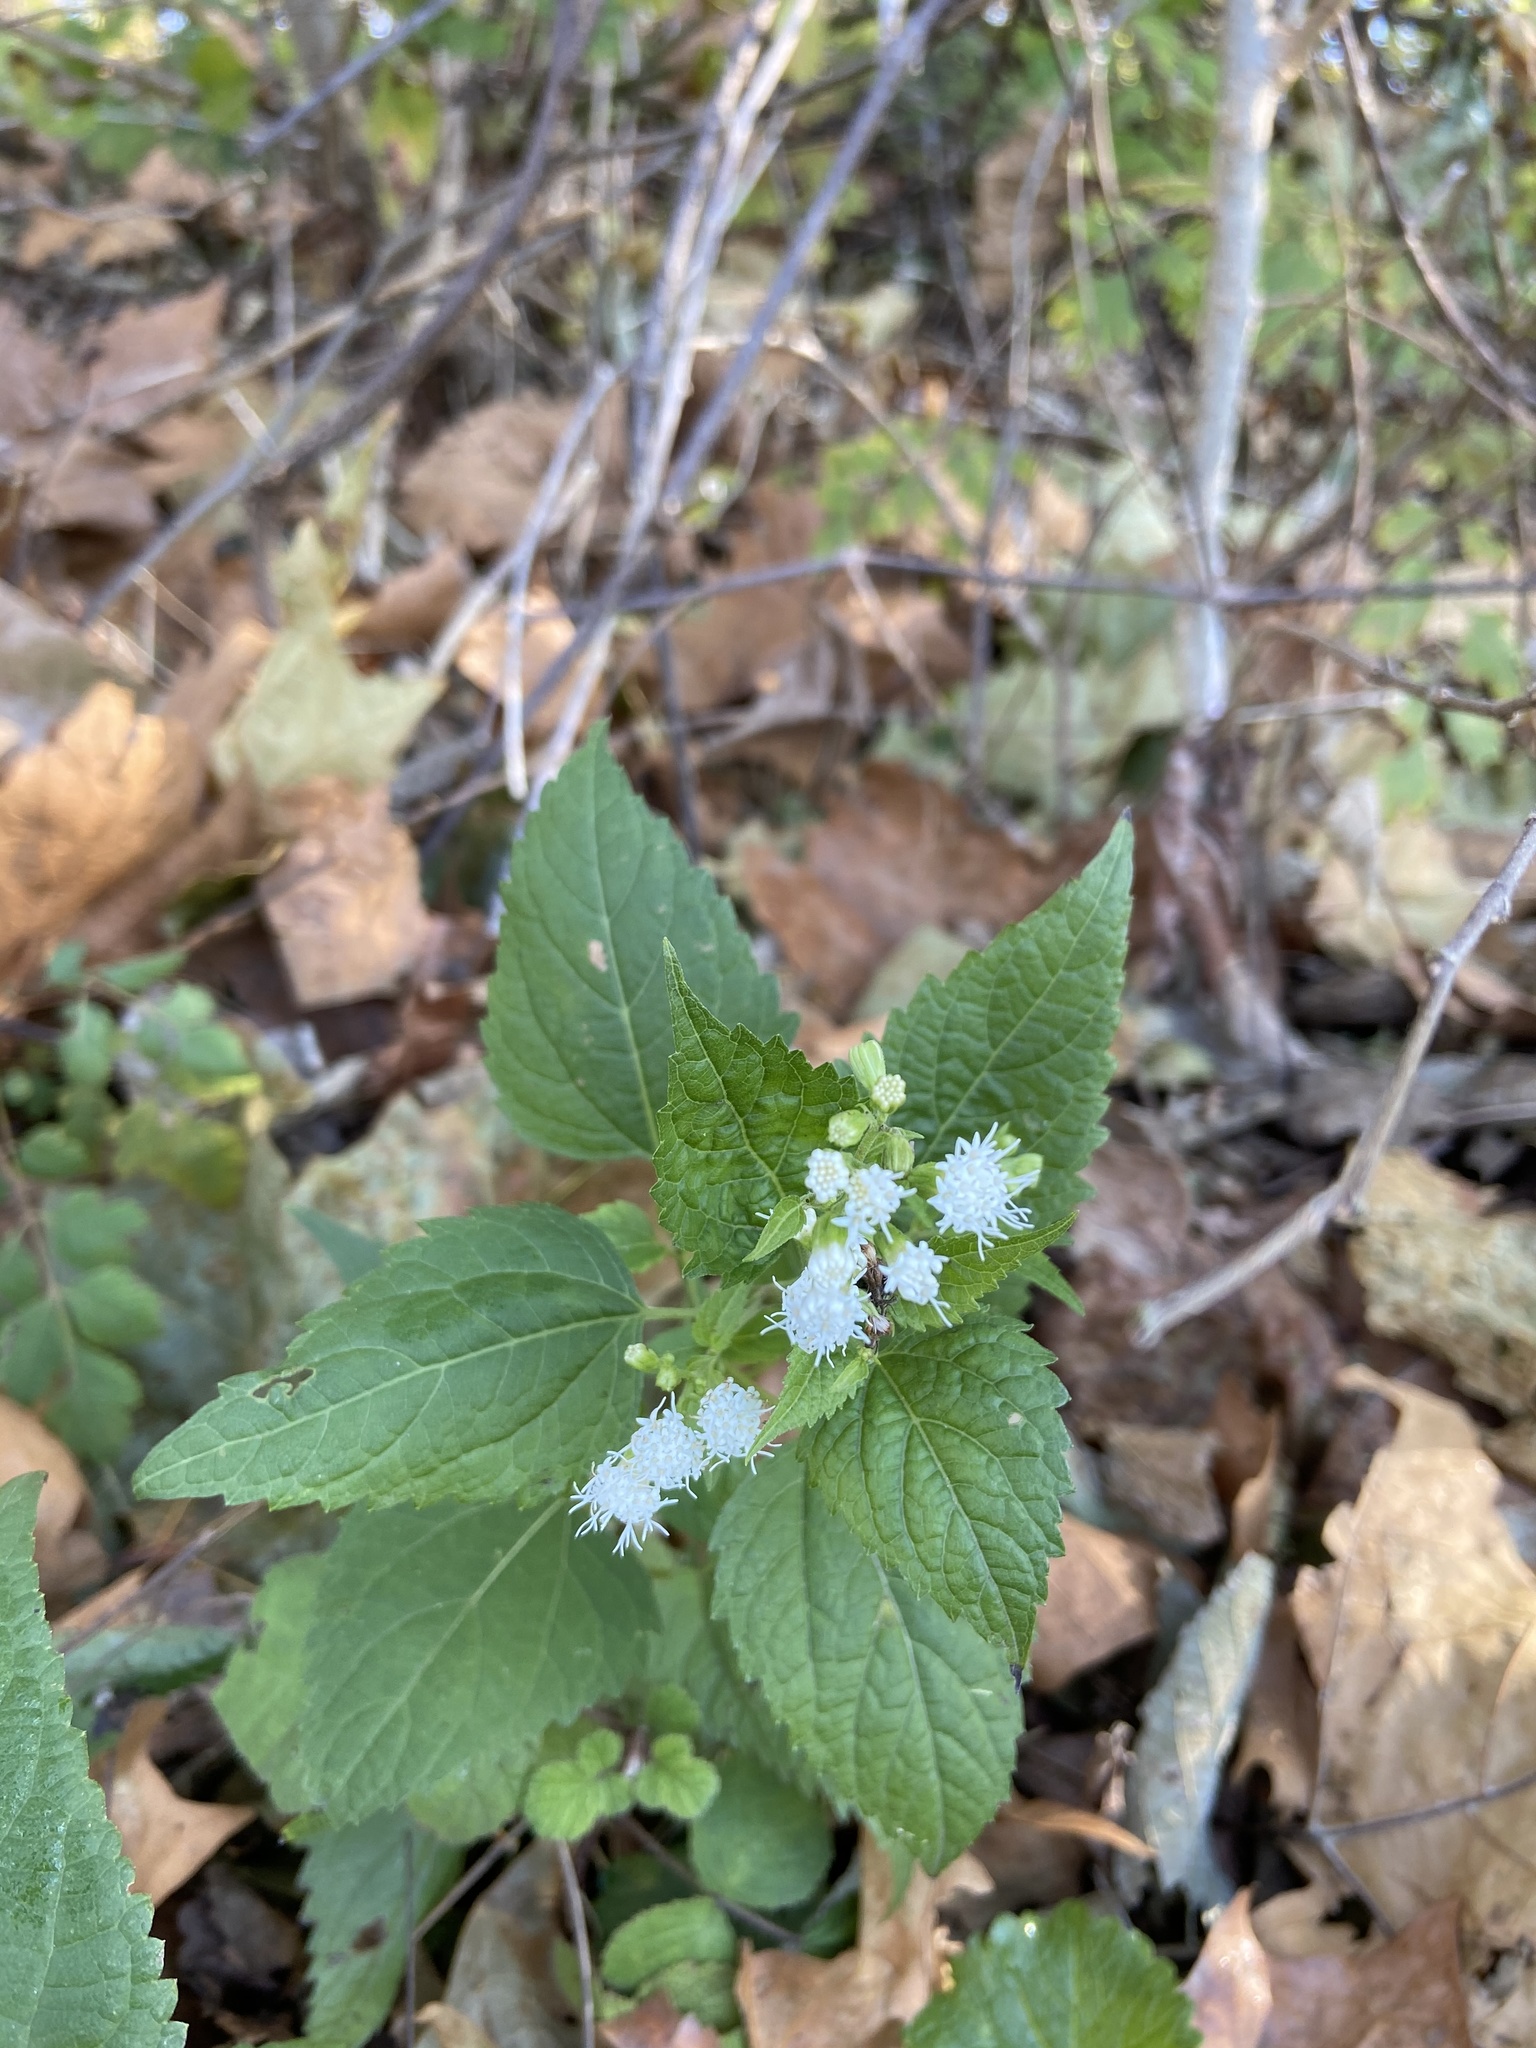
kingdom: Plantae
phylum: Tracheophyta
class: Magnoliopsida
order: Asterales
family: Asteraceae
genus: Ageratina
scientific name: Ageratina altissima
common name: White snakeroot
